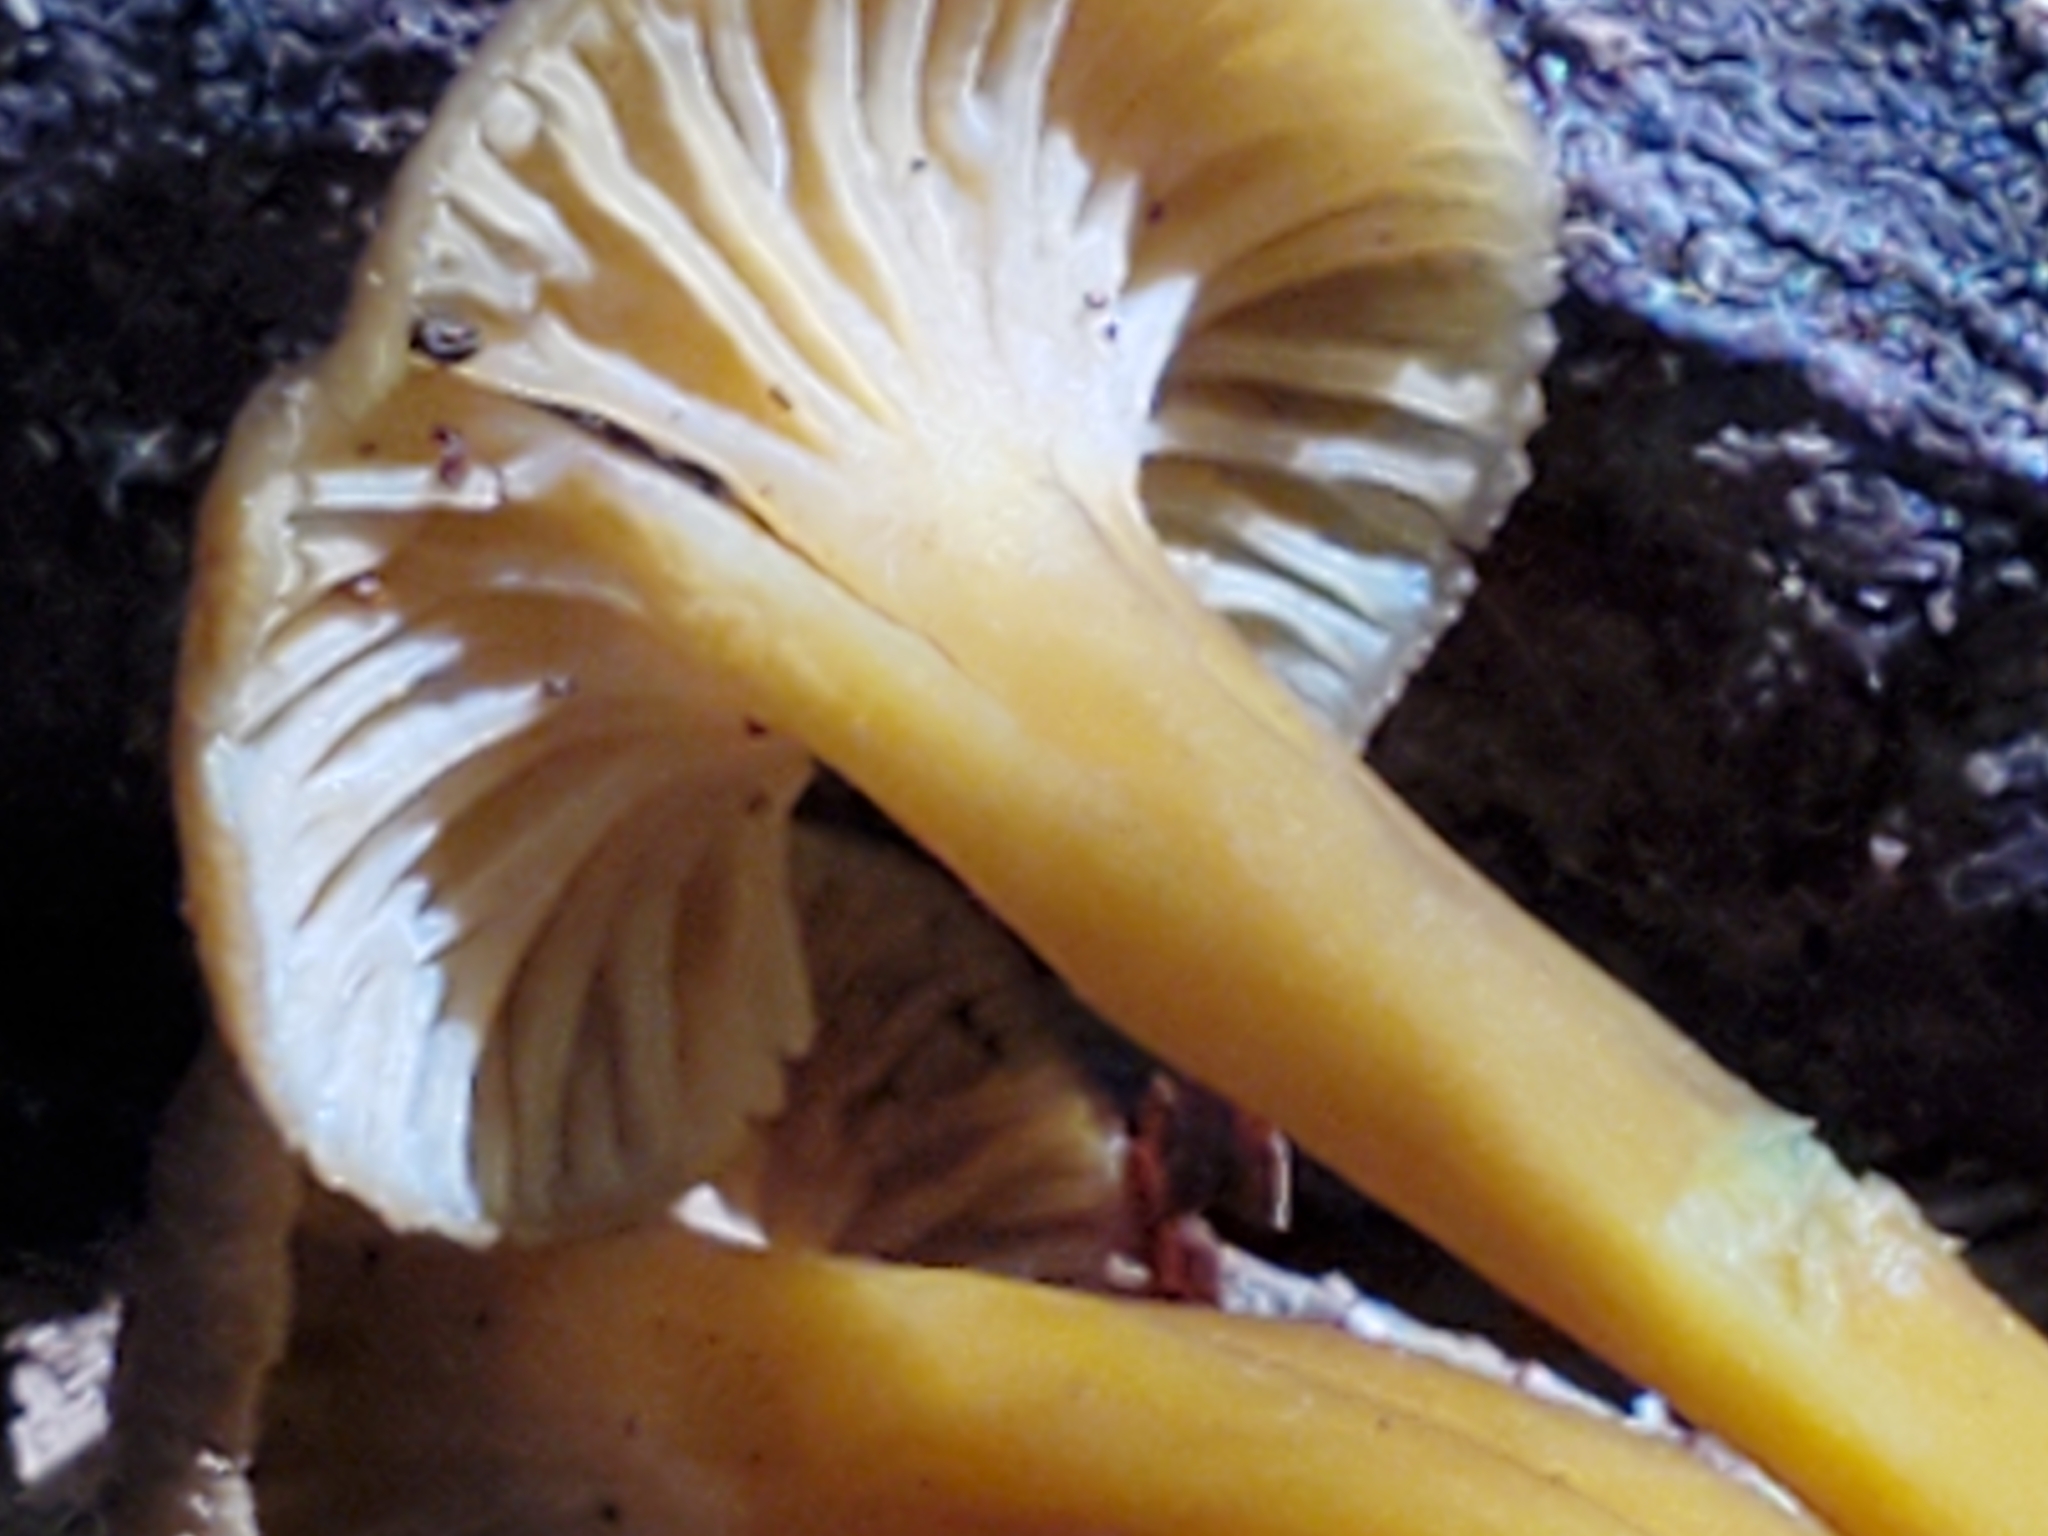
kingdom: Fungi
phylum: Basidiomycota
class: Agaricomycetes
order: Cantharellales
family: Hydnaceae
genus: Craterellus
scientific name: Craterellus tubaeformis
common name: Yellowfoot
